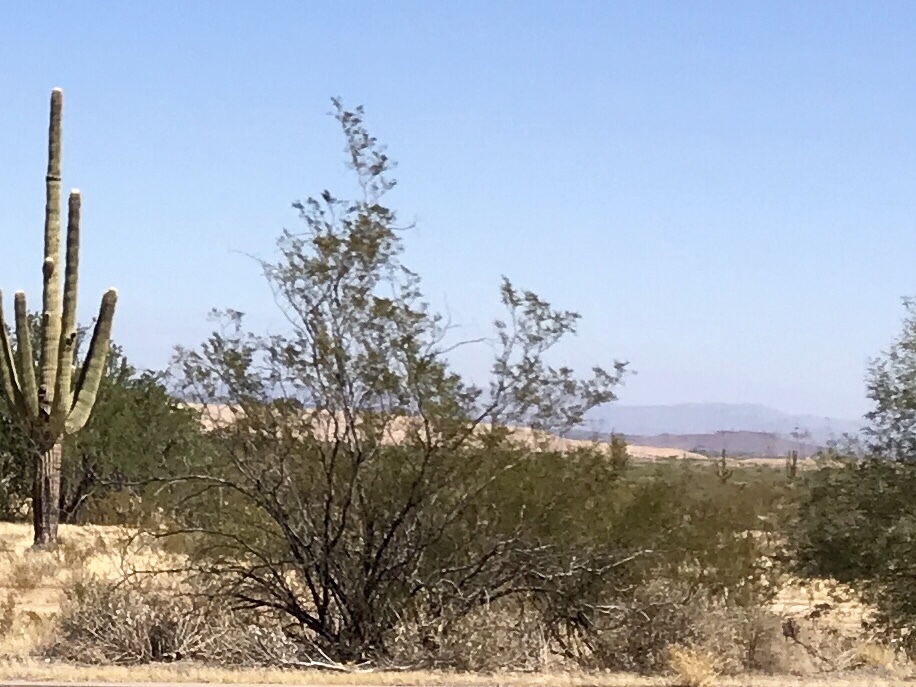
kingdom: Plantae
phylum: Tracheophyta
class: Magnoliopsida
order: Zygophyllales
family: Zygophyllaceae
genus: Larrea
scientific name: Larrea tridentata
